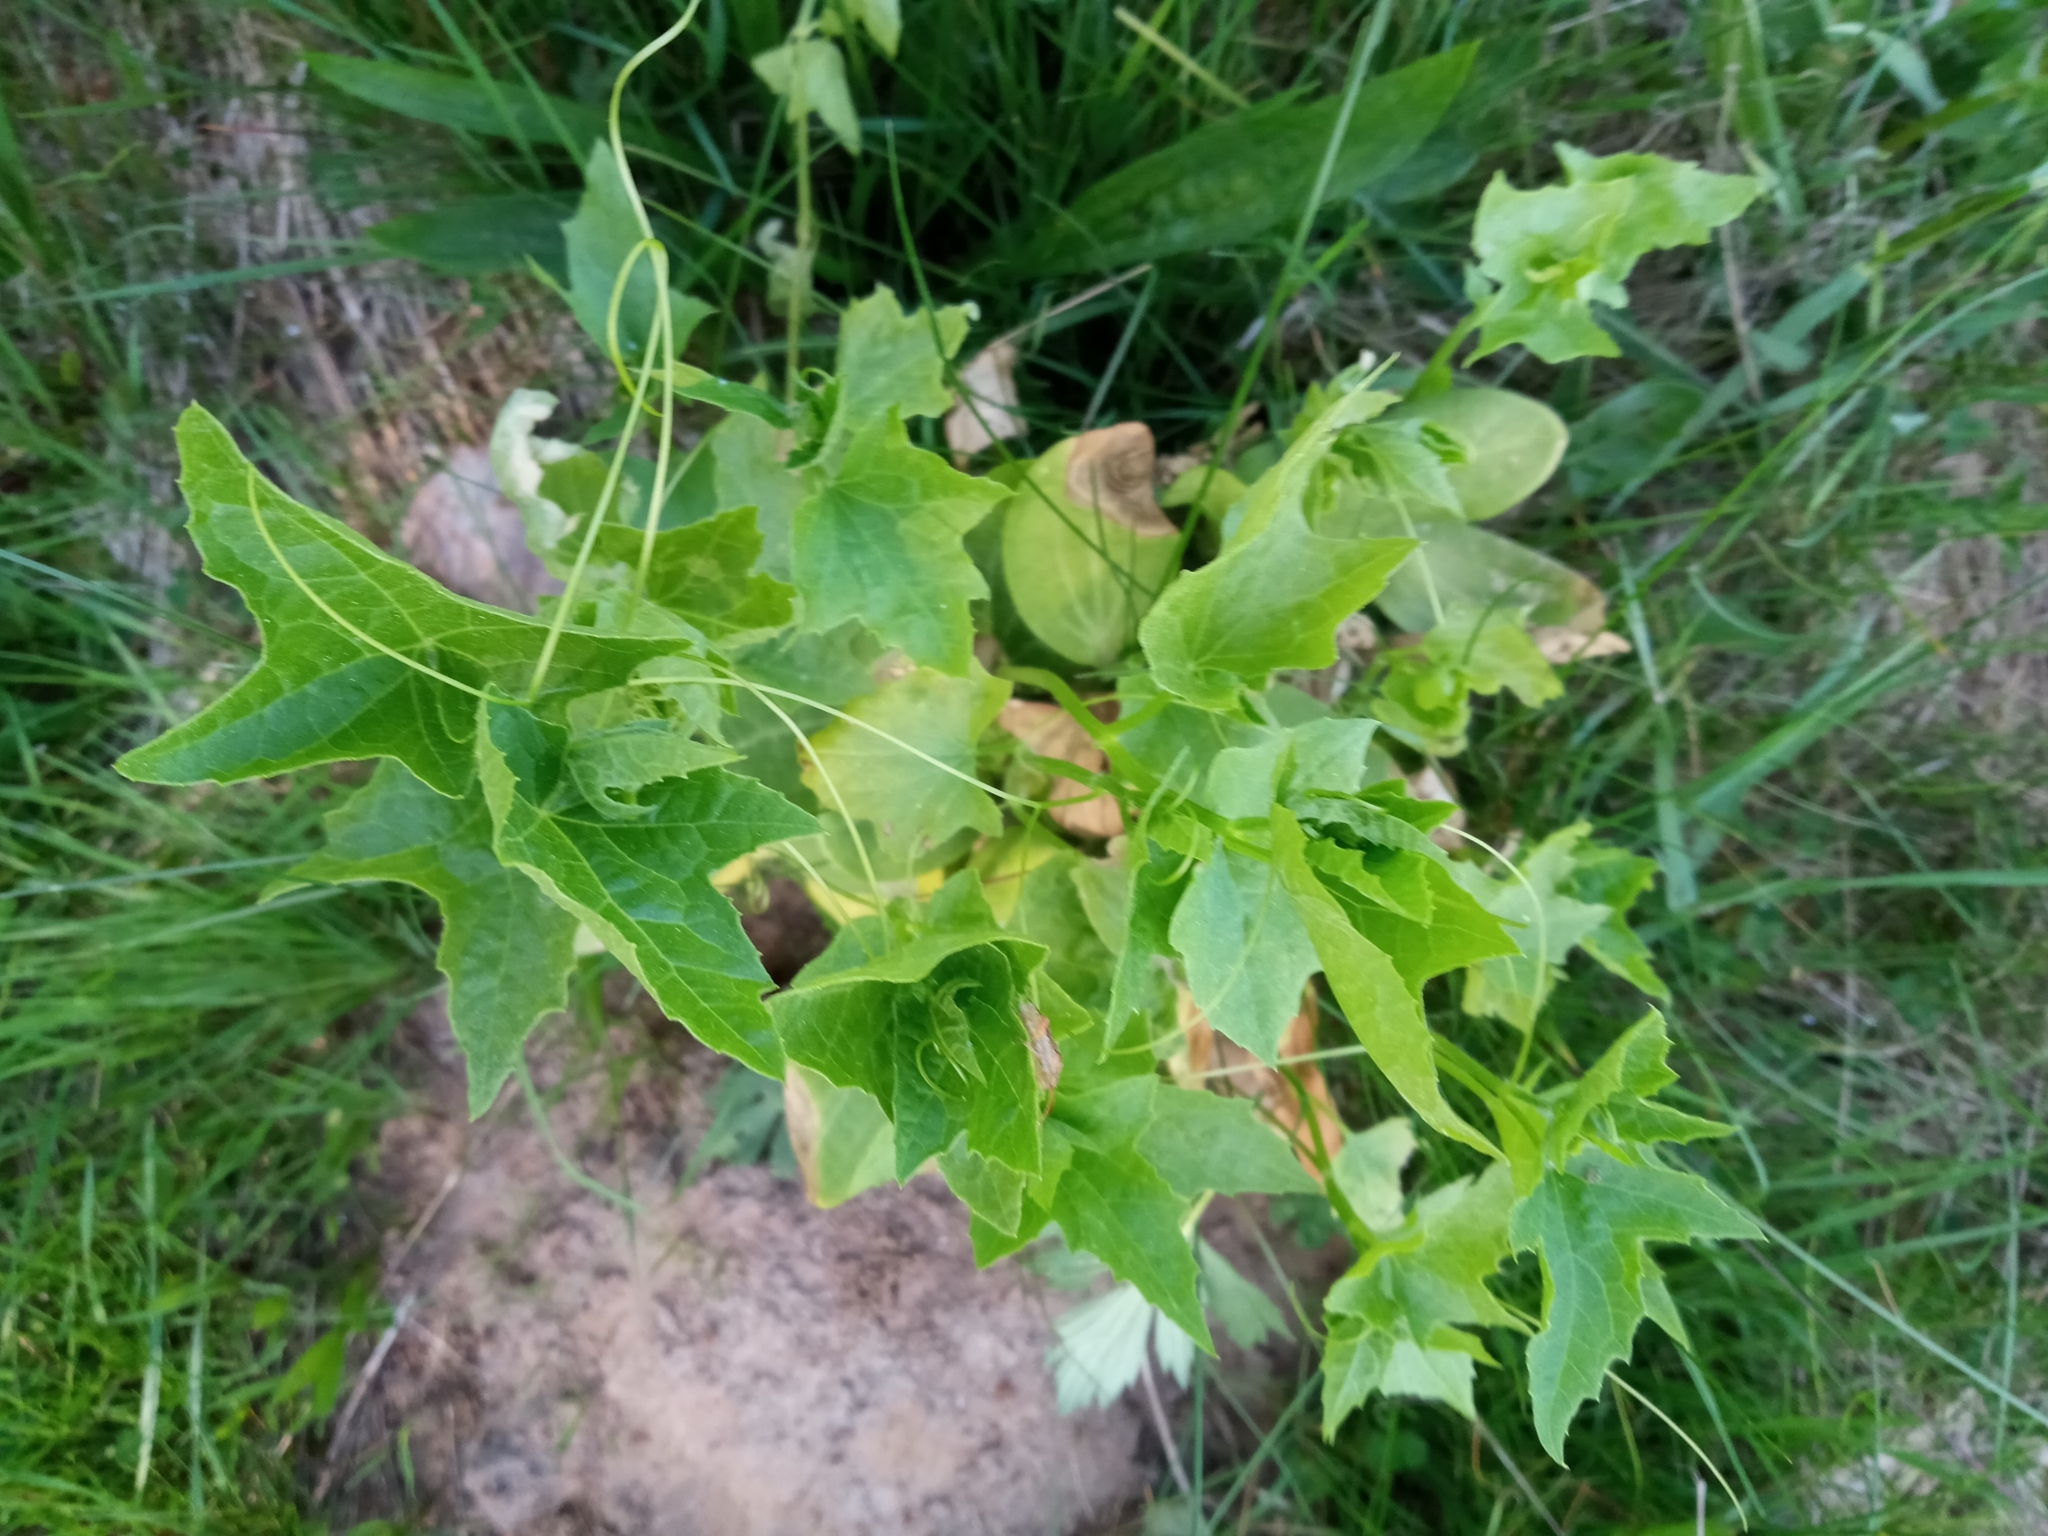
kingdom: Plantae
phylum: Tracheophyta
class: Magnoliopsida
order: Cucurbitales
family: Cucurbitaceae
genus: Echinocystis
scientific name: Echinocystis lobata
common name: Wild cucumber
